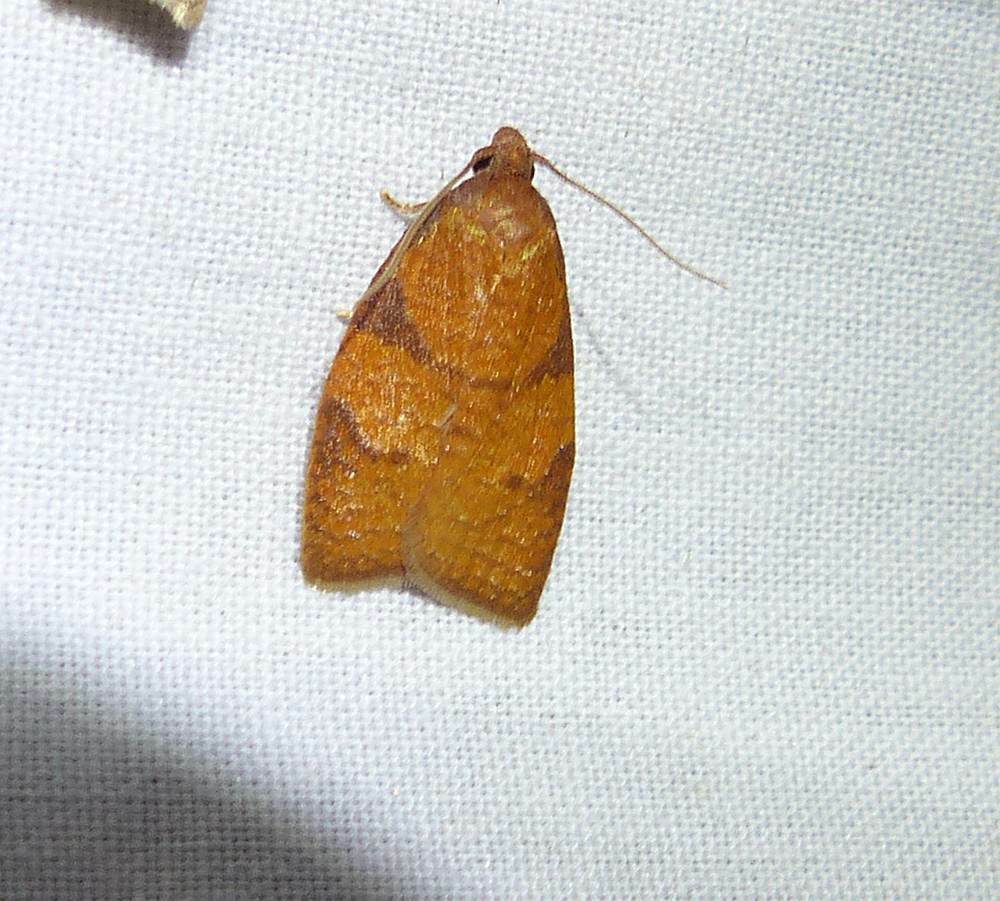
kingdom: Animalia
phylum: Arthropoda
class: Insecta
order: Lepidoptera
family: Tortricidae
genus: Cenopis
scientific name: Cenopis directana
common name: Chokecherry leafroller moth
